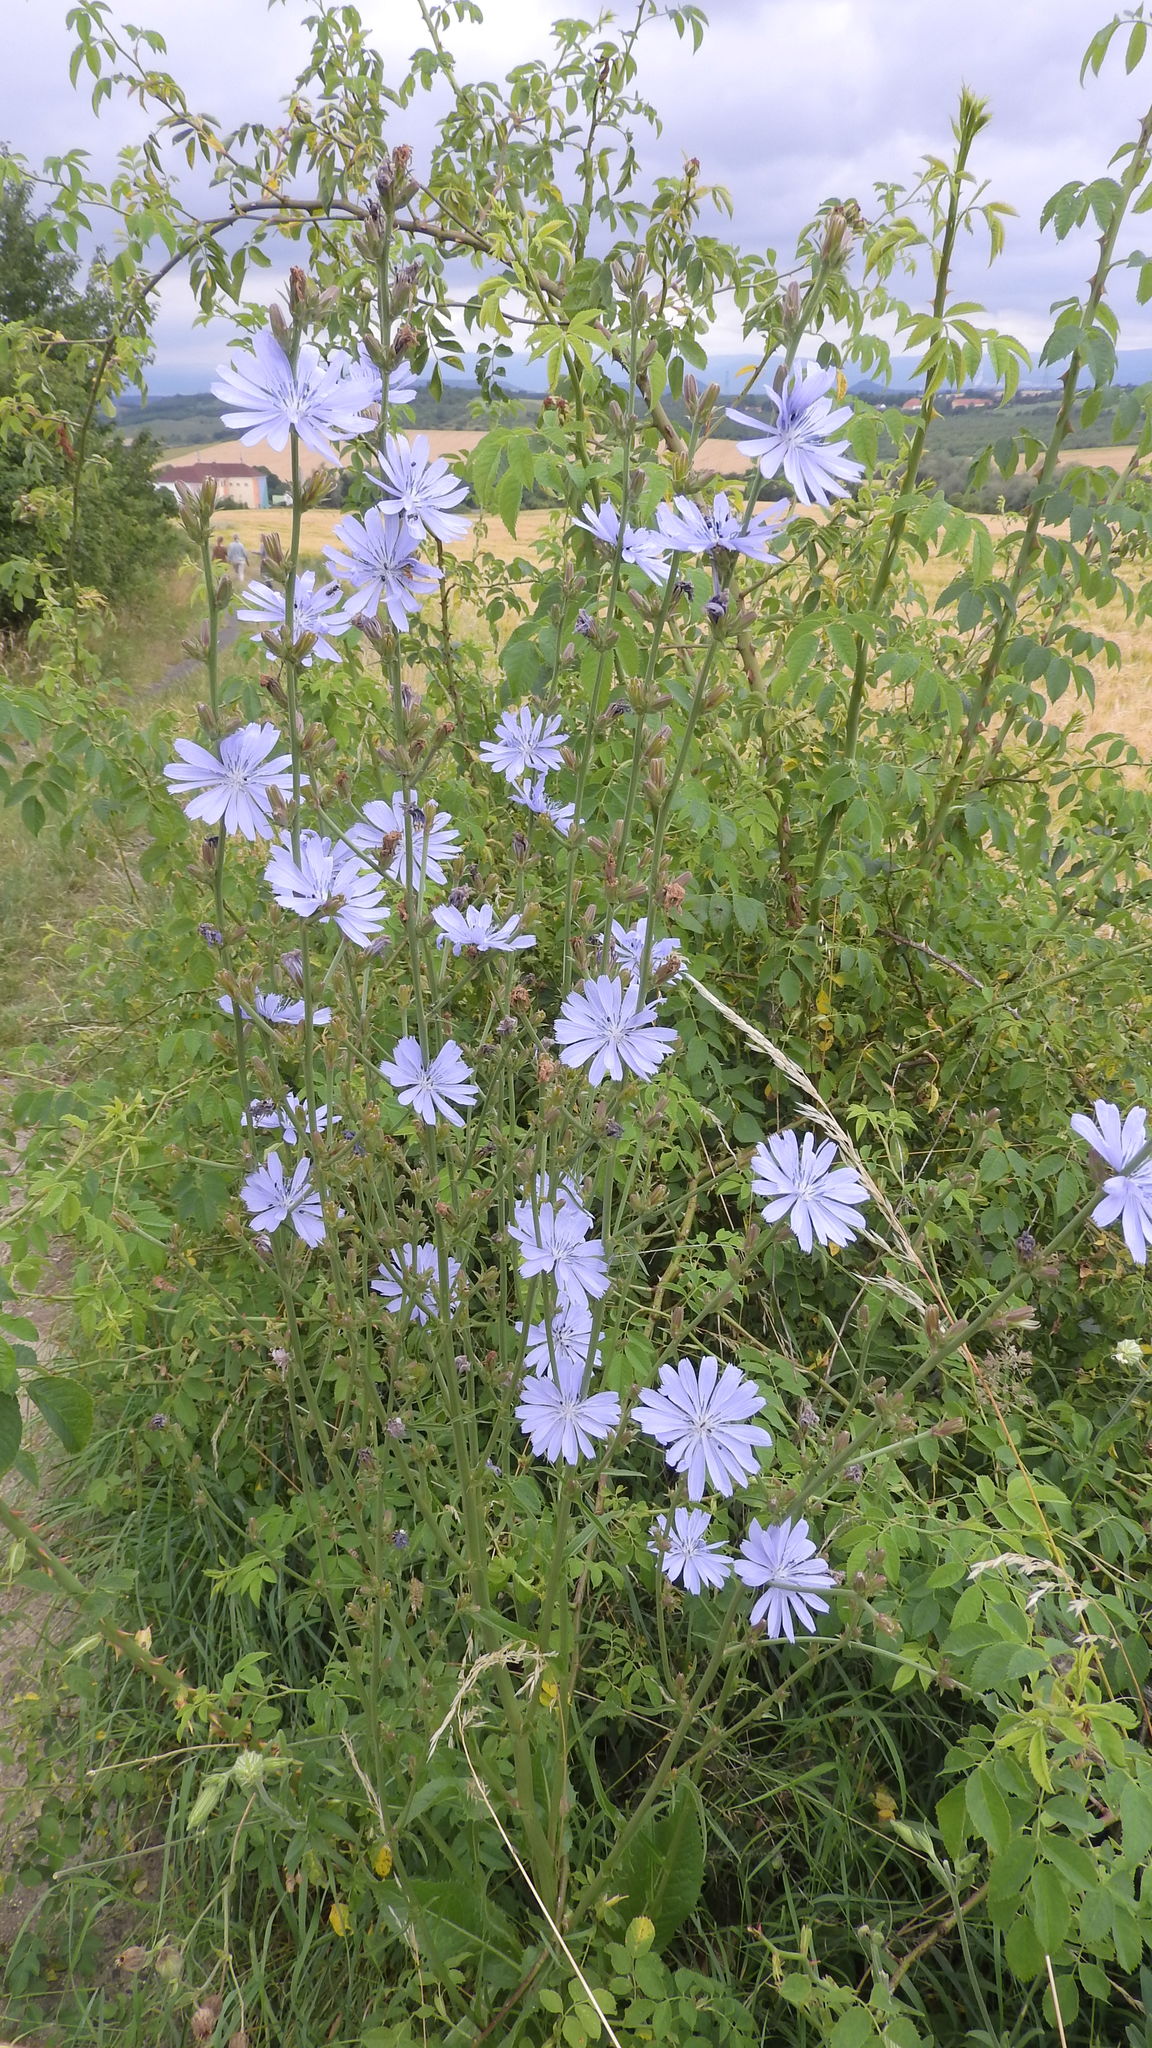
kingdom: Plantae
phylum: Tracheophyta
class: Magnoliopsida
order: Asterales
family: Asteraceae
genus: Cichorium
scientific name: Cichorium intybus
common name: Chicory
